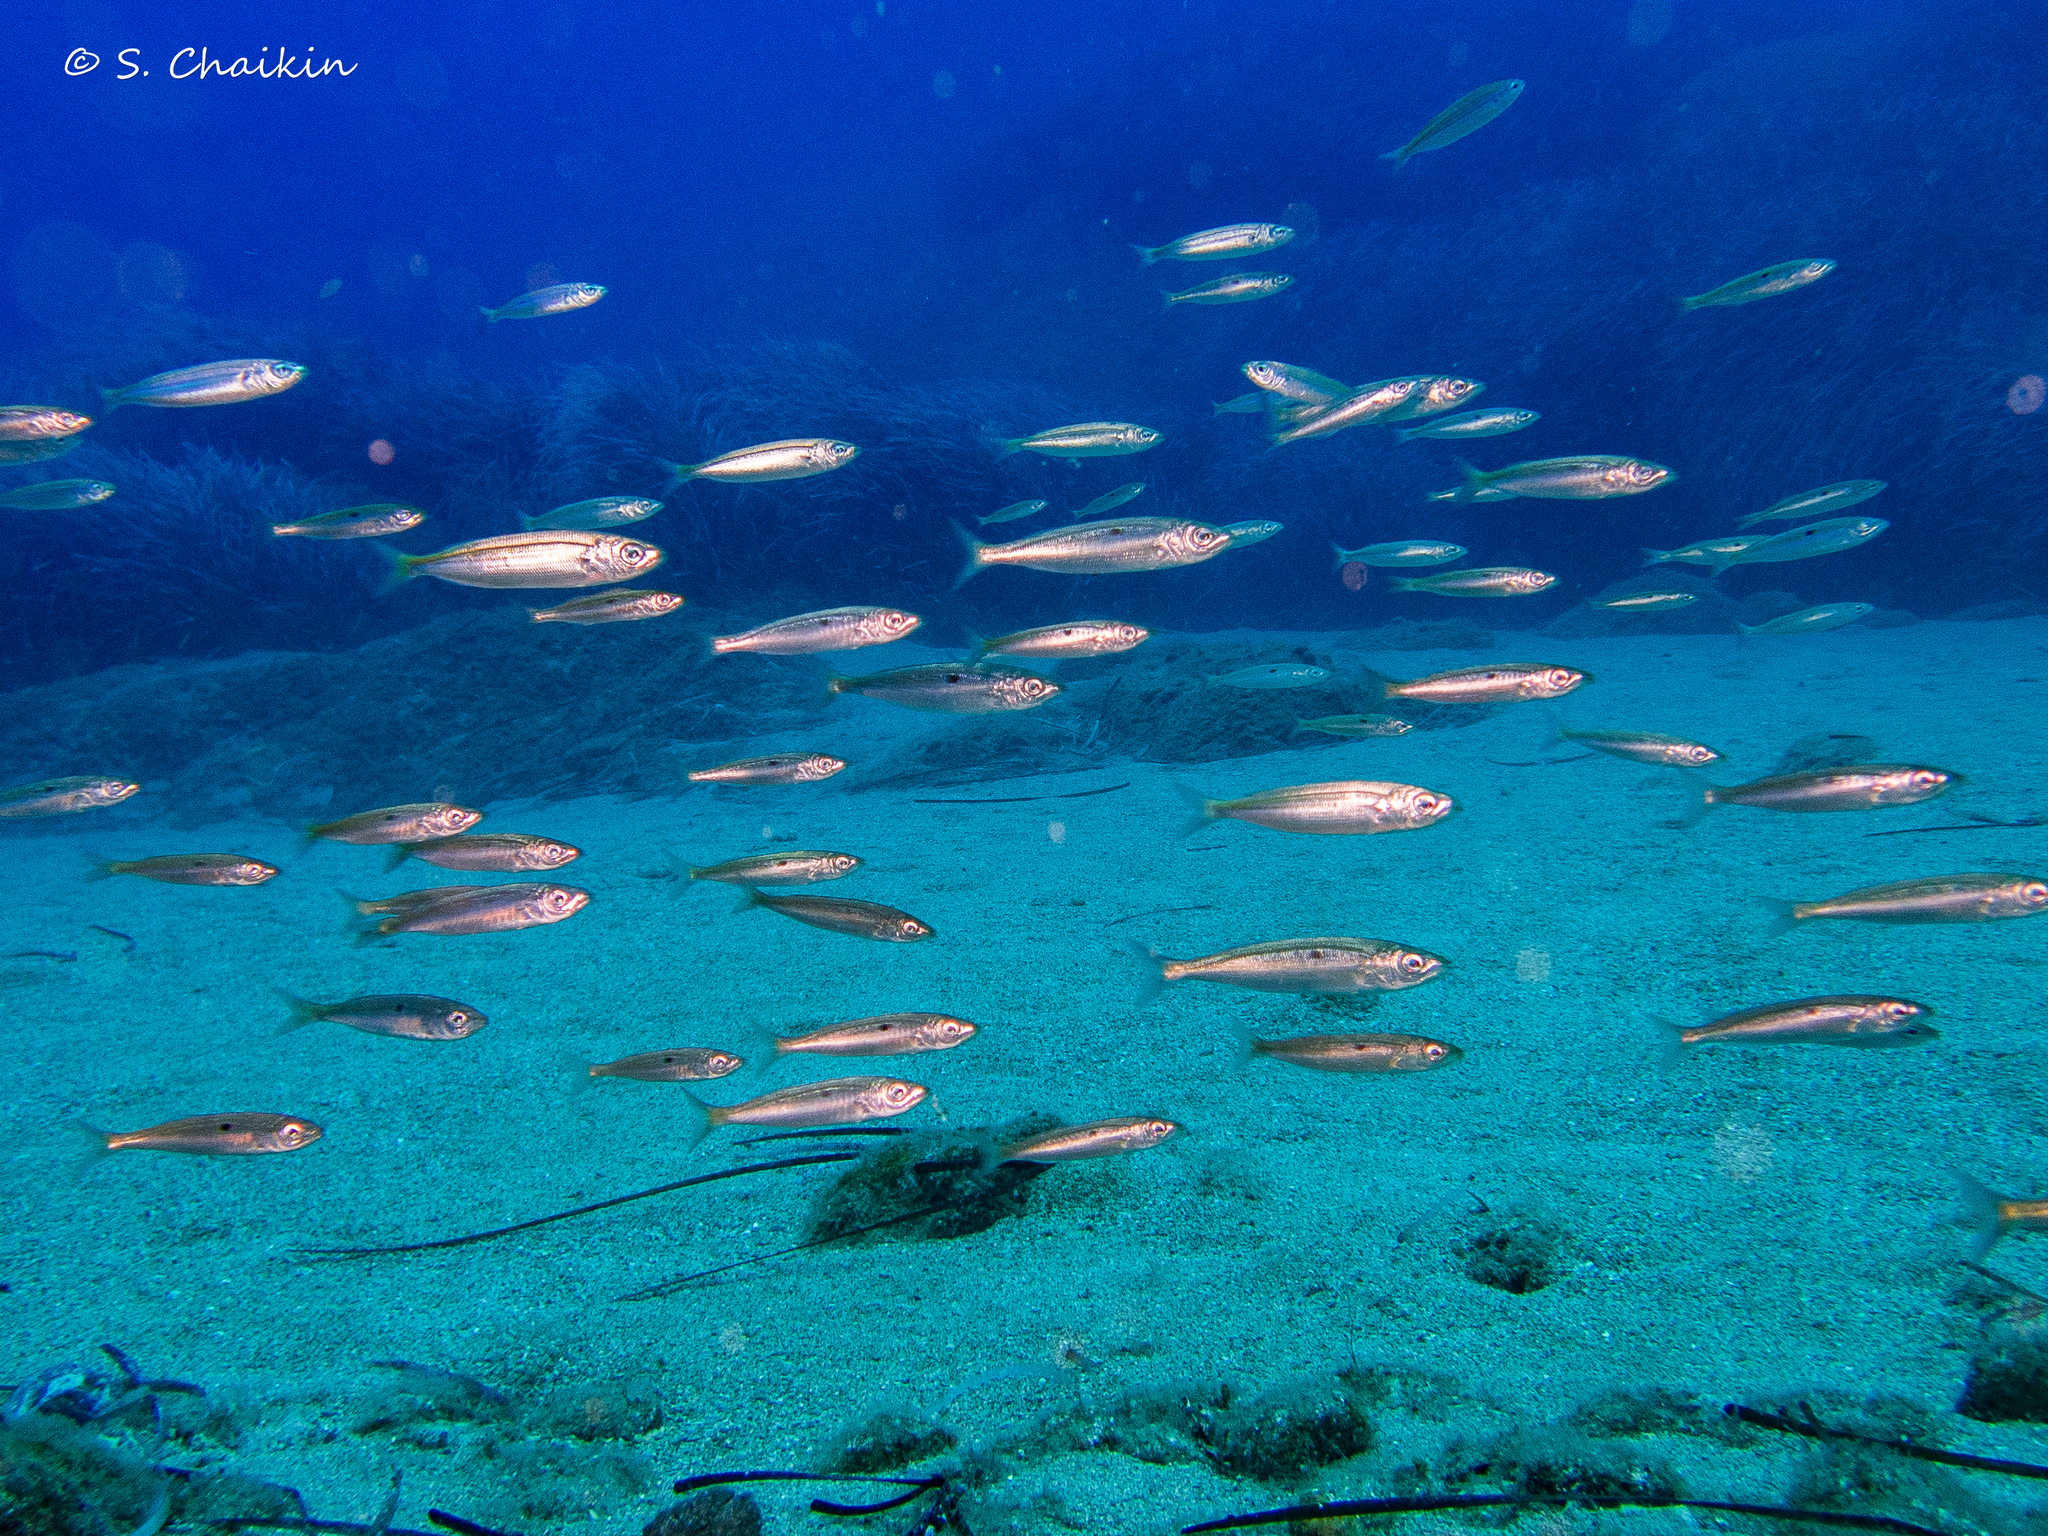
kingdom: Animalia
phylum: Chordata
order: Perciformes
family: Sparidae
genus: Spicara
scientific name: Spicara smaris
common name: Picarel
